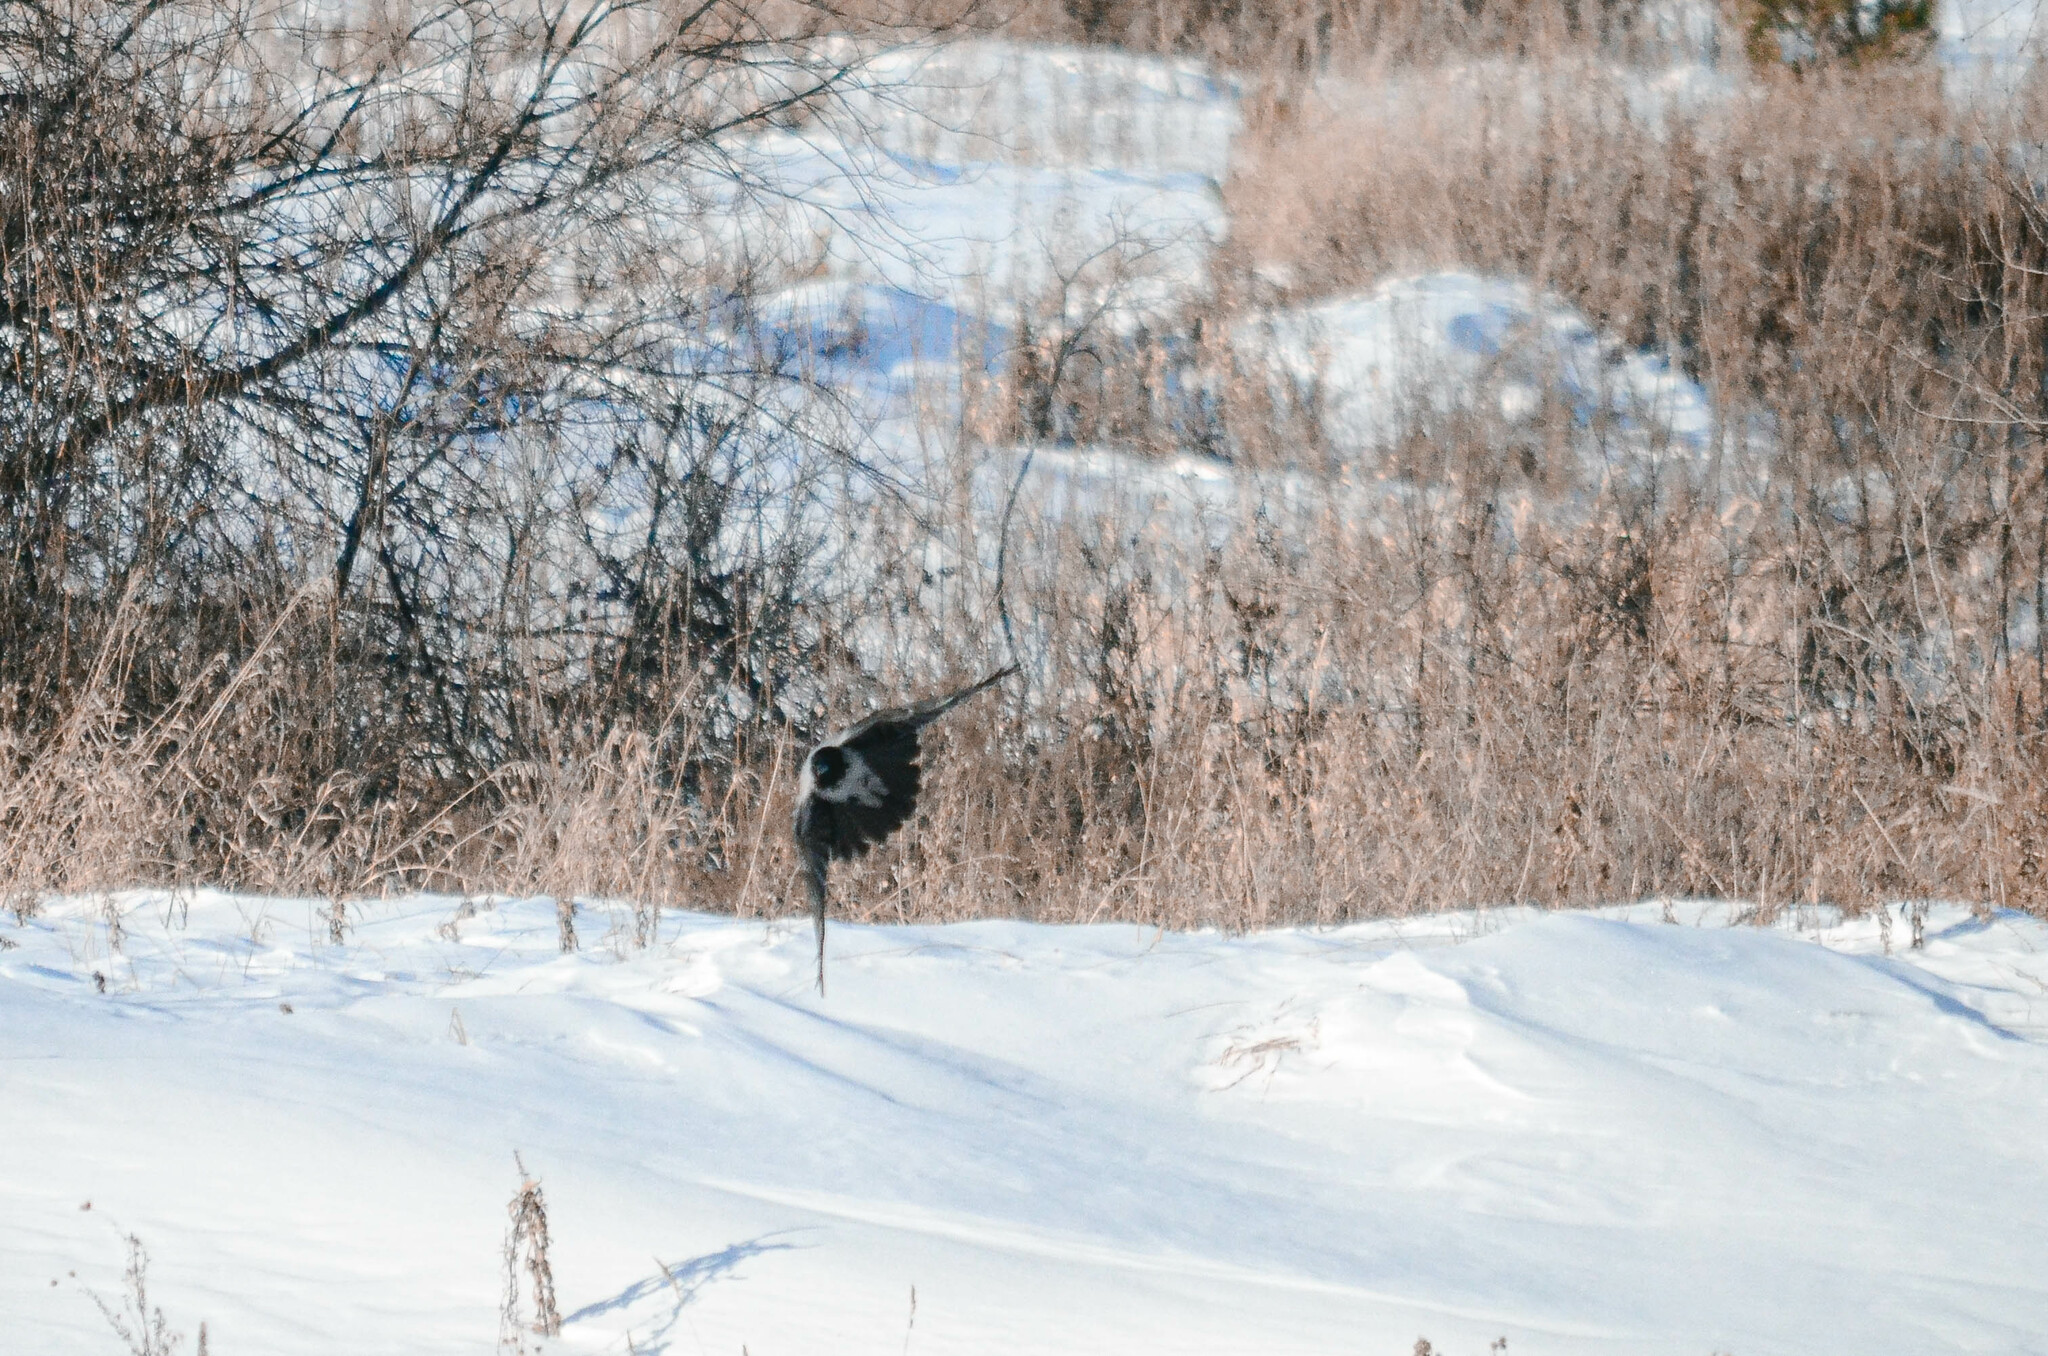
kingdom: Animalia
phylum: Chordata
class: Aves
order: Passeriformes
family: Corvidae
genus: Corvus
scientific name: Corvus cornix
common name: Hooded crow
